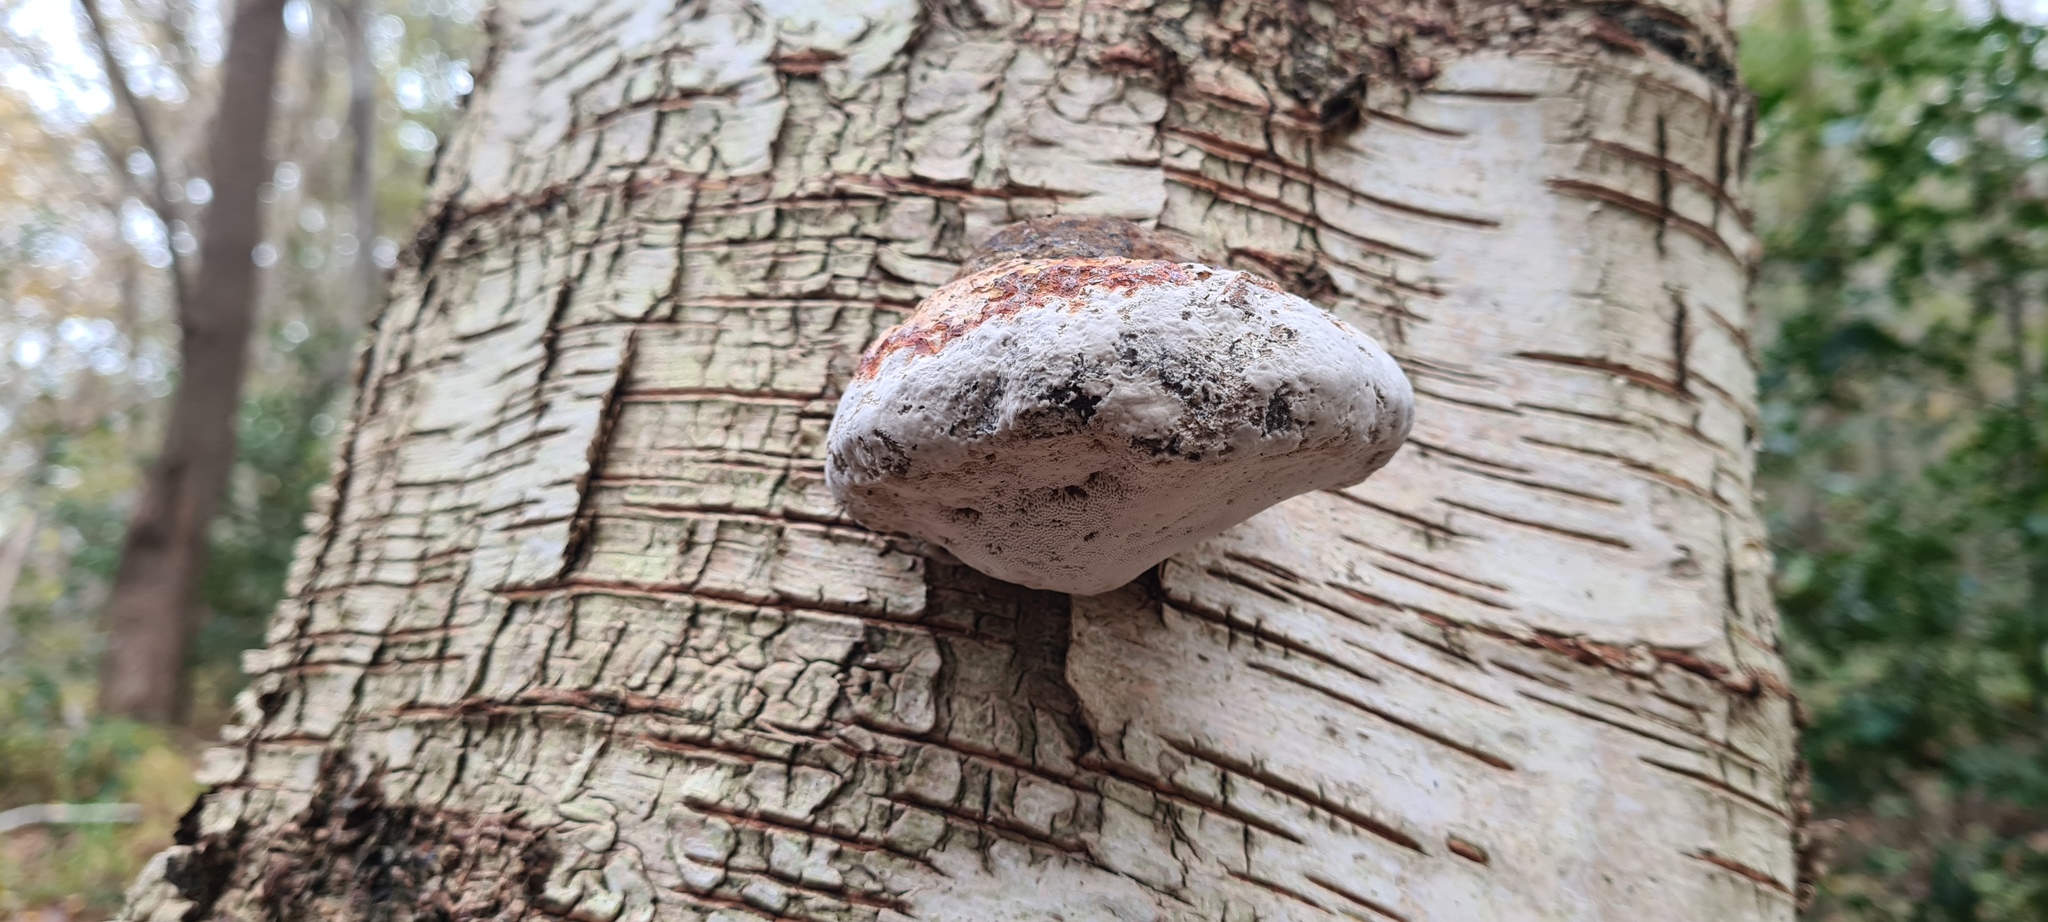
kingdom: Fungi
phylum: Basidiomycota
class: Agaricomycetes
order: Polyporales
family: Polyporaceae
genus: Fomes
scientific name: Fomes fomentarius
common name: Hoof fungus
